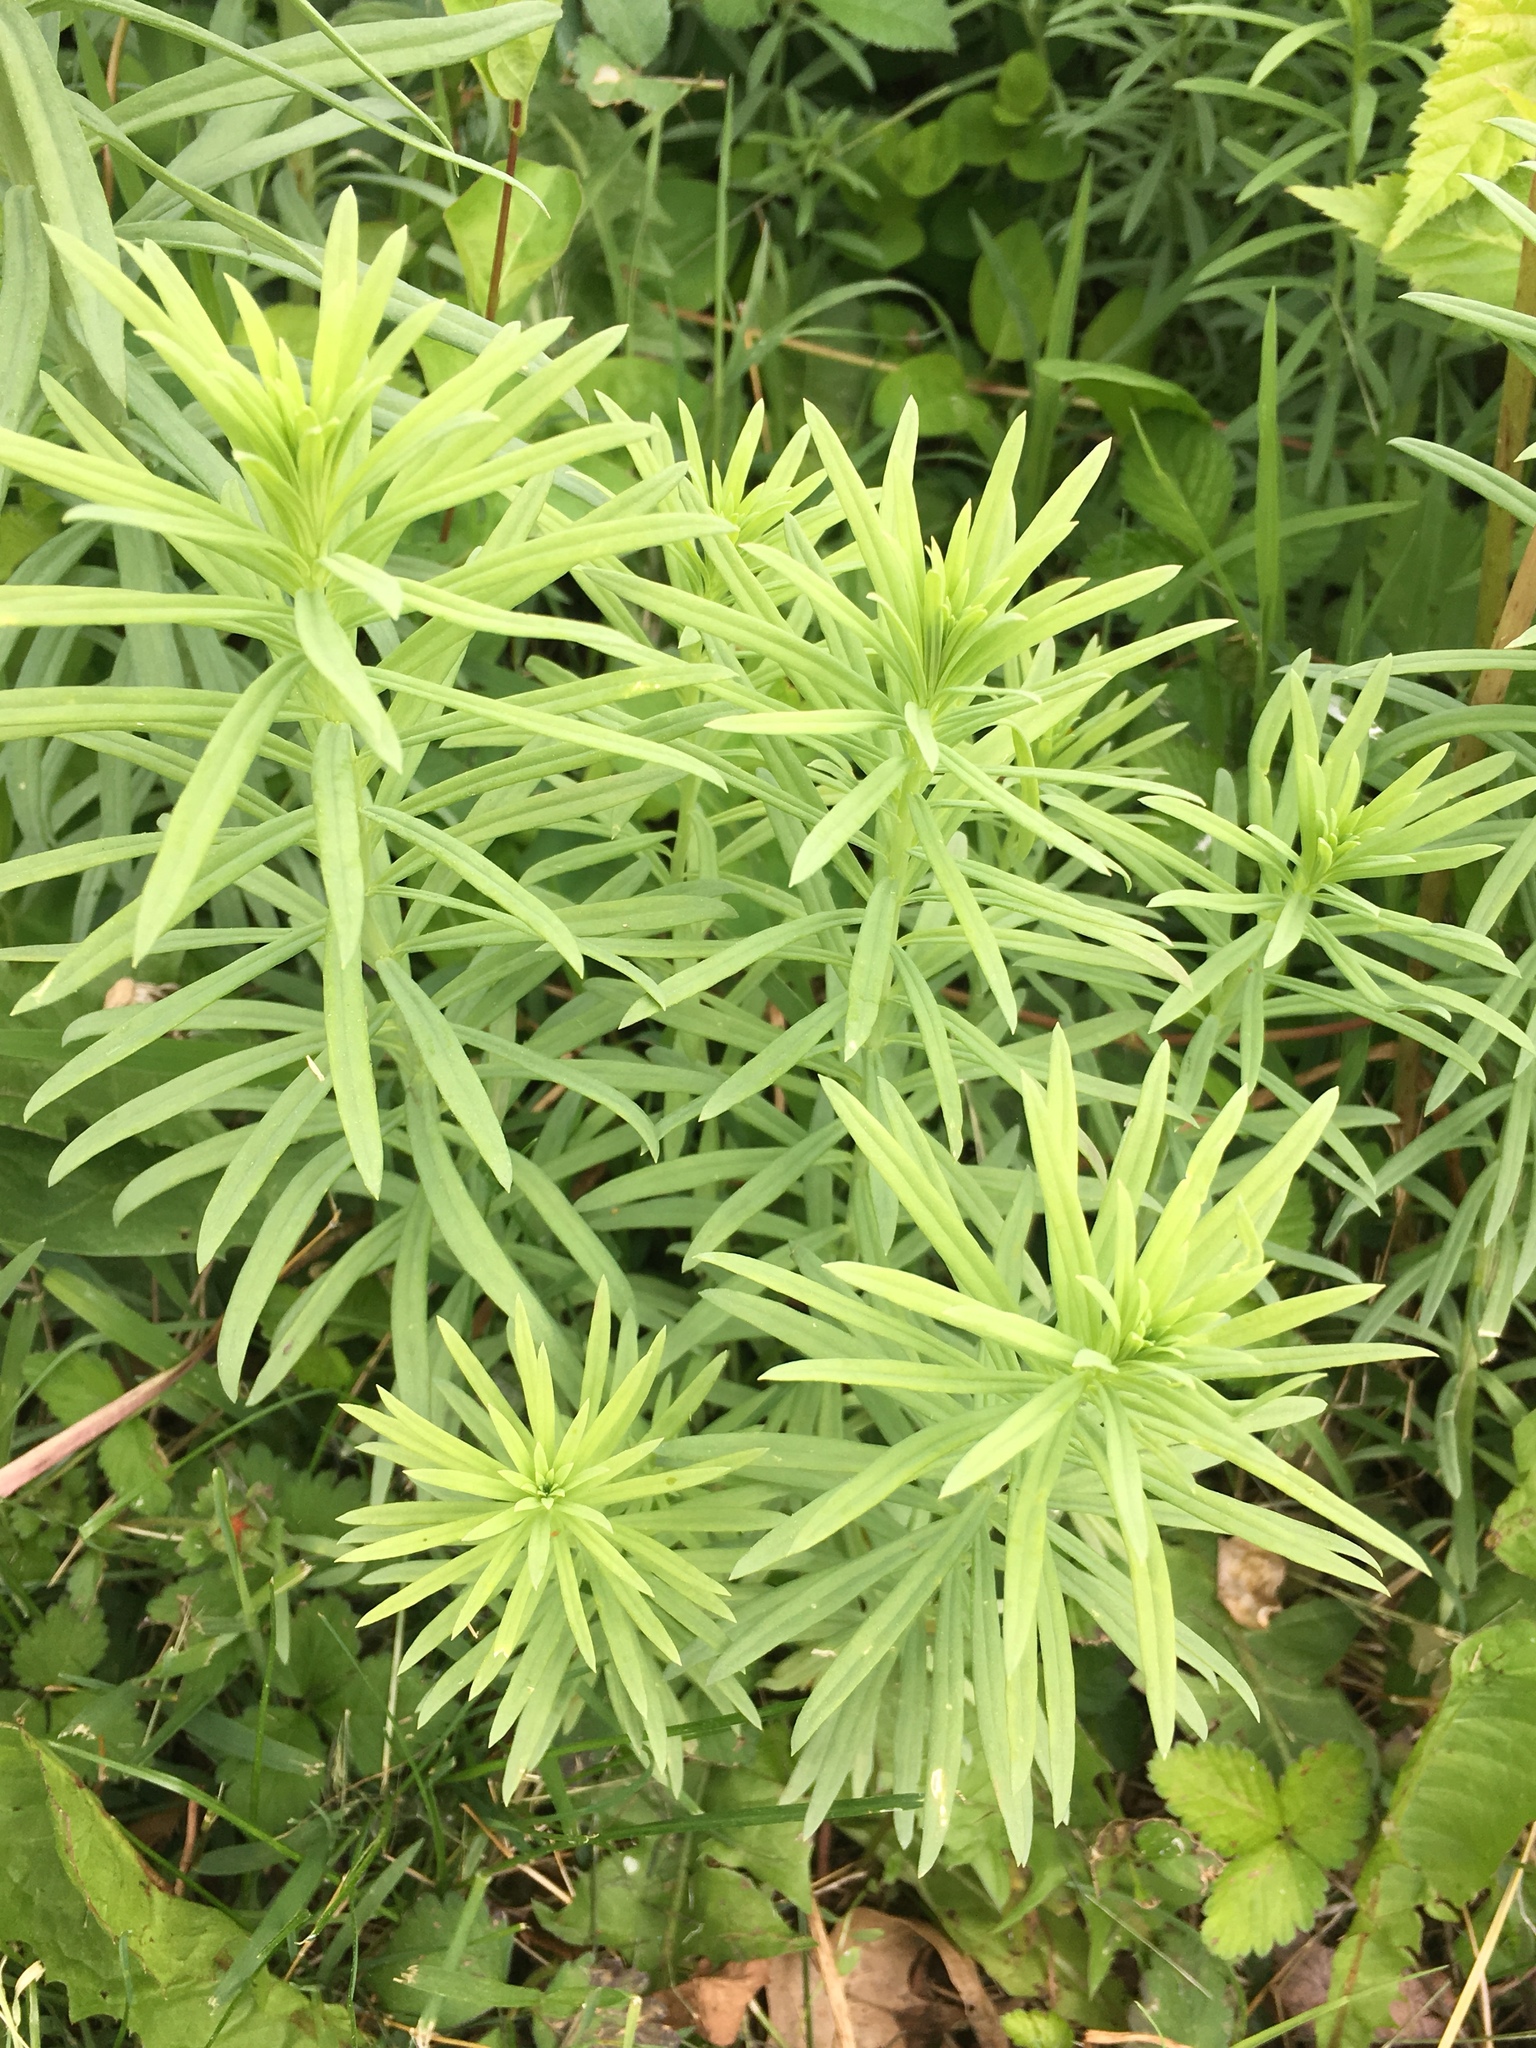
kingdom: Plantae
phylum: Tracheophyta
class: Magnoliopsida
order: Lamiales
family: Plantaginaceae
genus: Linaria
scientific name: Linaria vulgaris
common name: Butter and eggs
